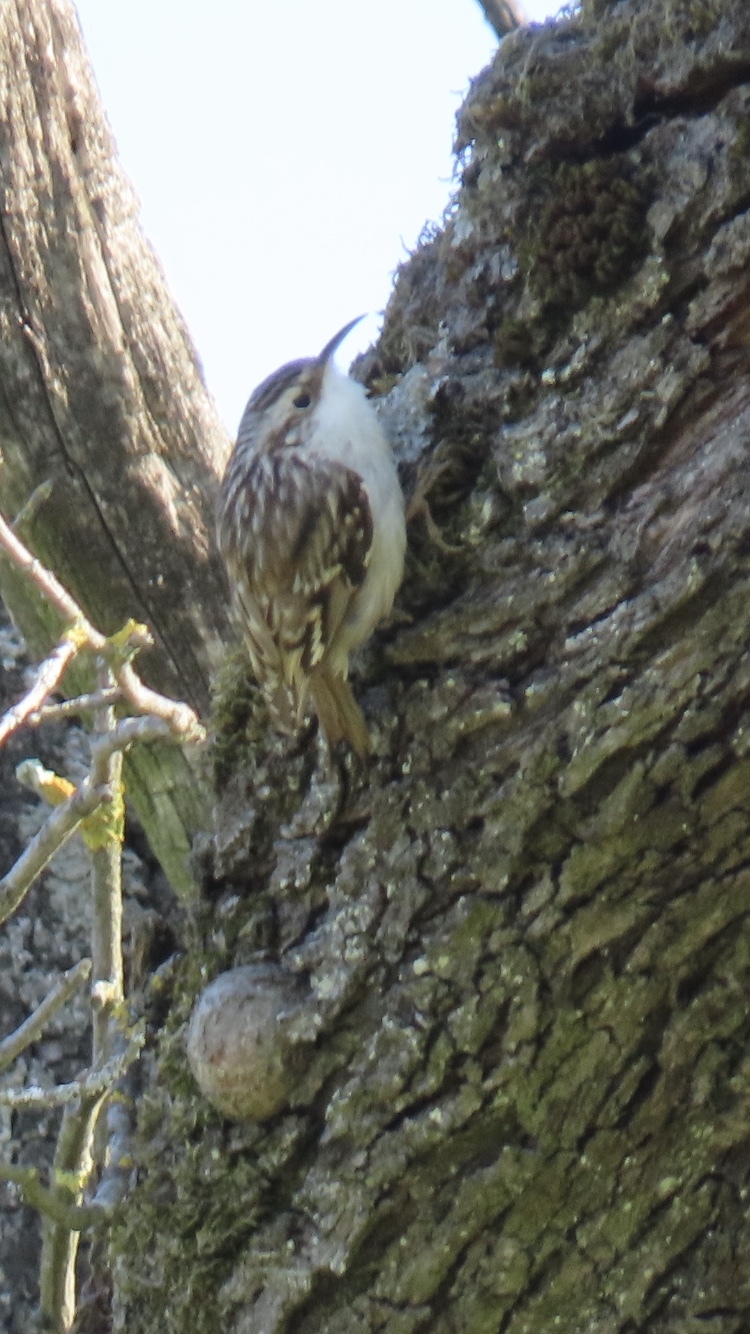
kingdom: Animalia
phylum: Chordata
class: Aves
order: Passeriformes
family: Certhiidae
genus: Certhia
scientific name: Certhia brachydactyla
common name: Short-toed treecreeper
